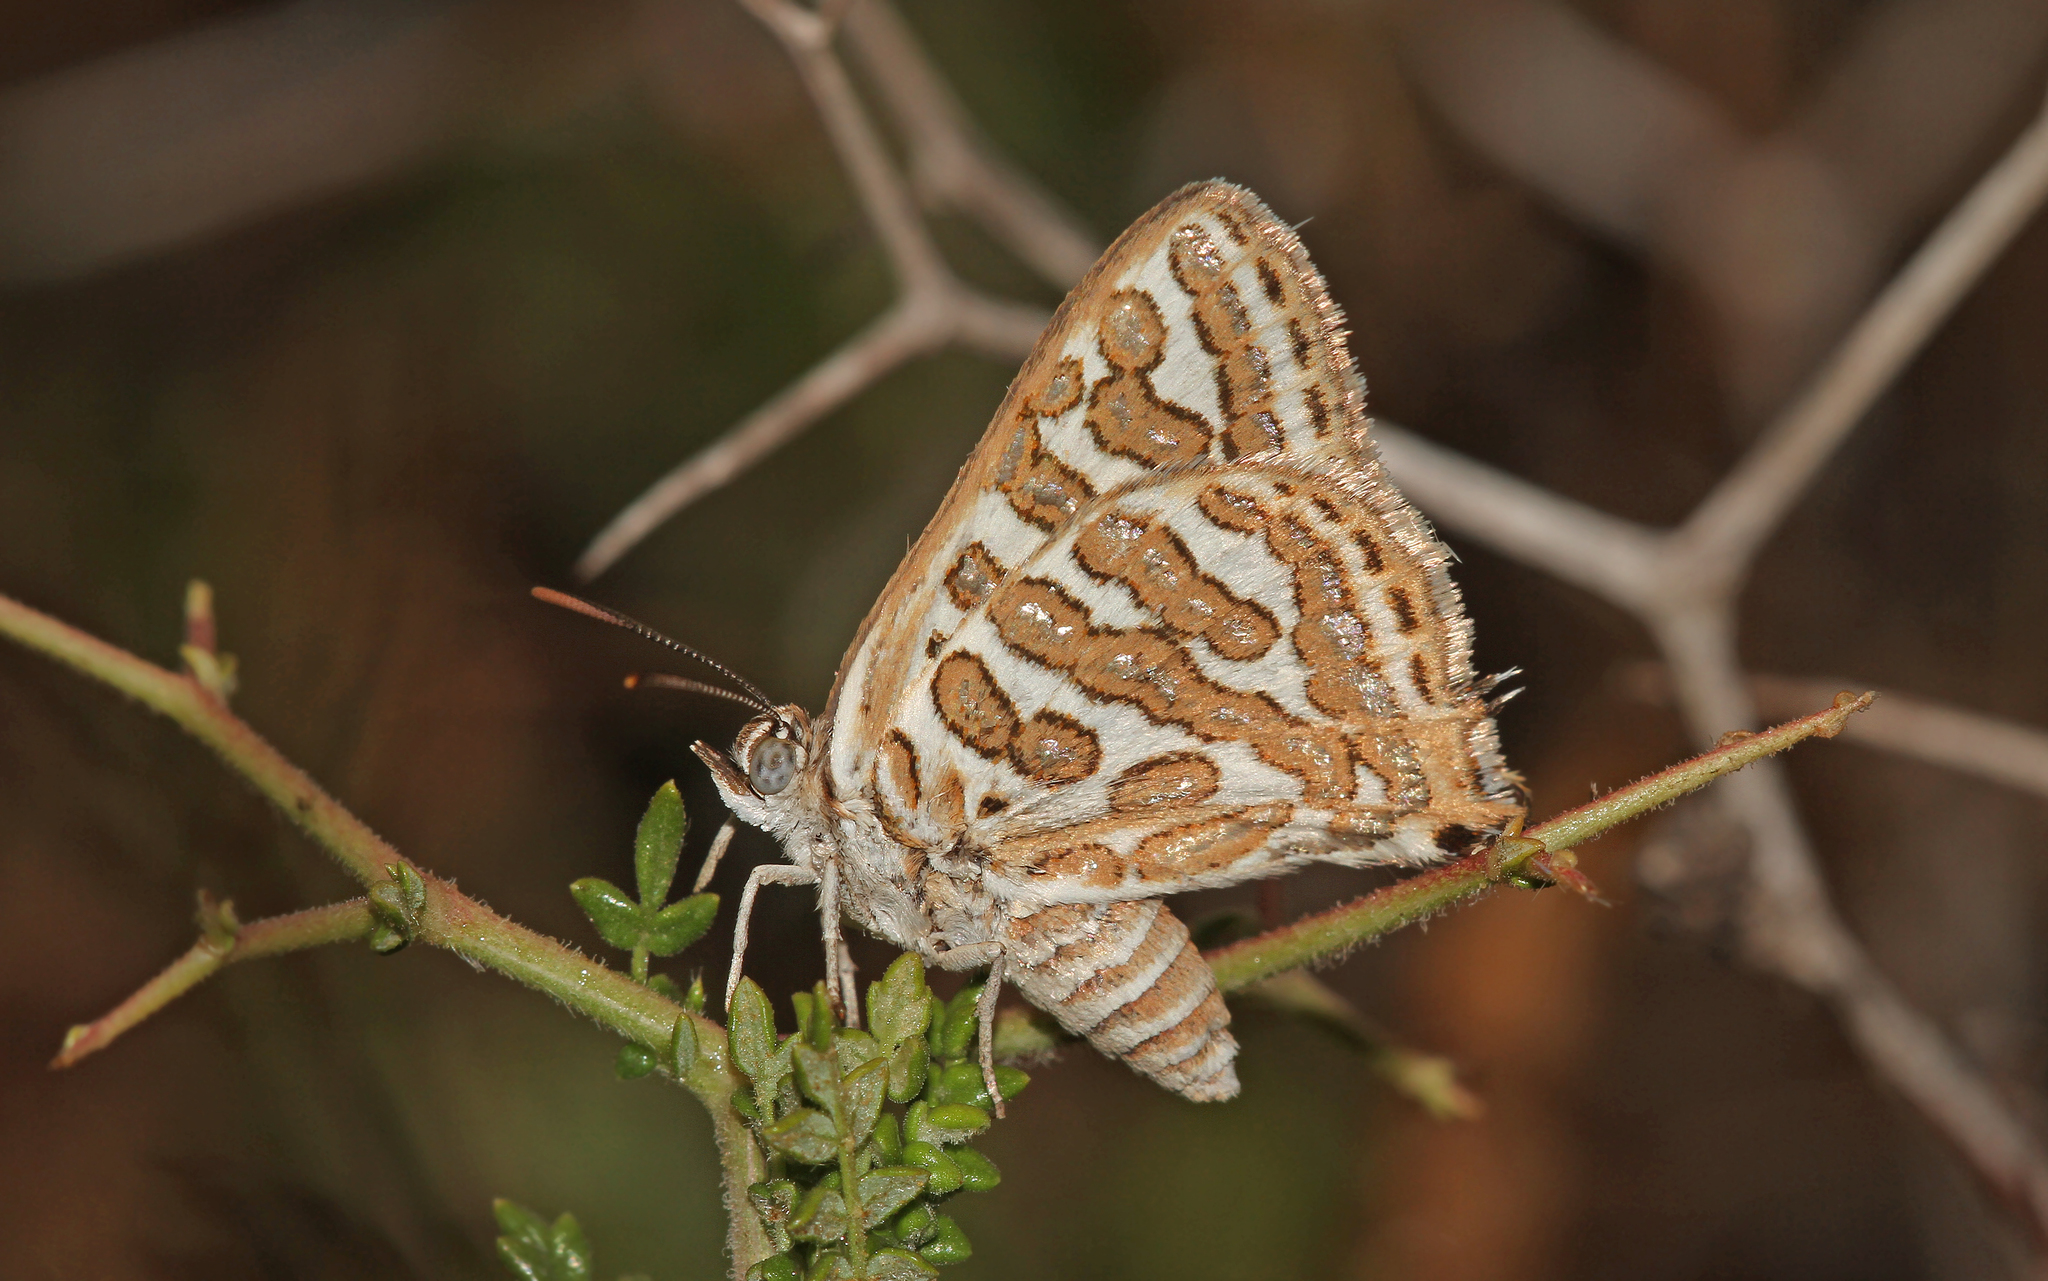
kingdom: Animalia
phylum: Arthropoda
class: Insecta
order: Lepidoptera
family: Lycaenidae
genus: Cigaritis
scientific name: Cigaritis acamas
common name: Levantine leopard
